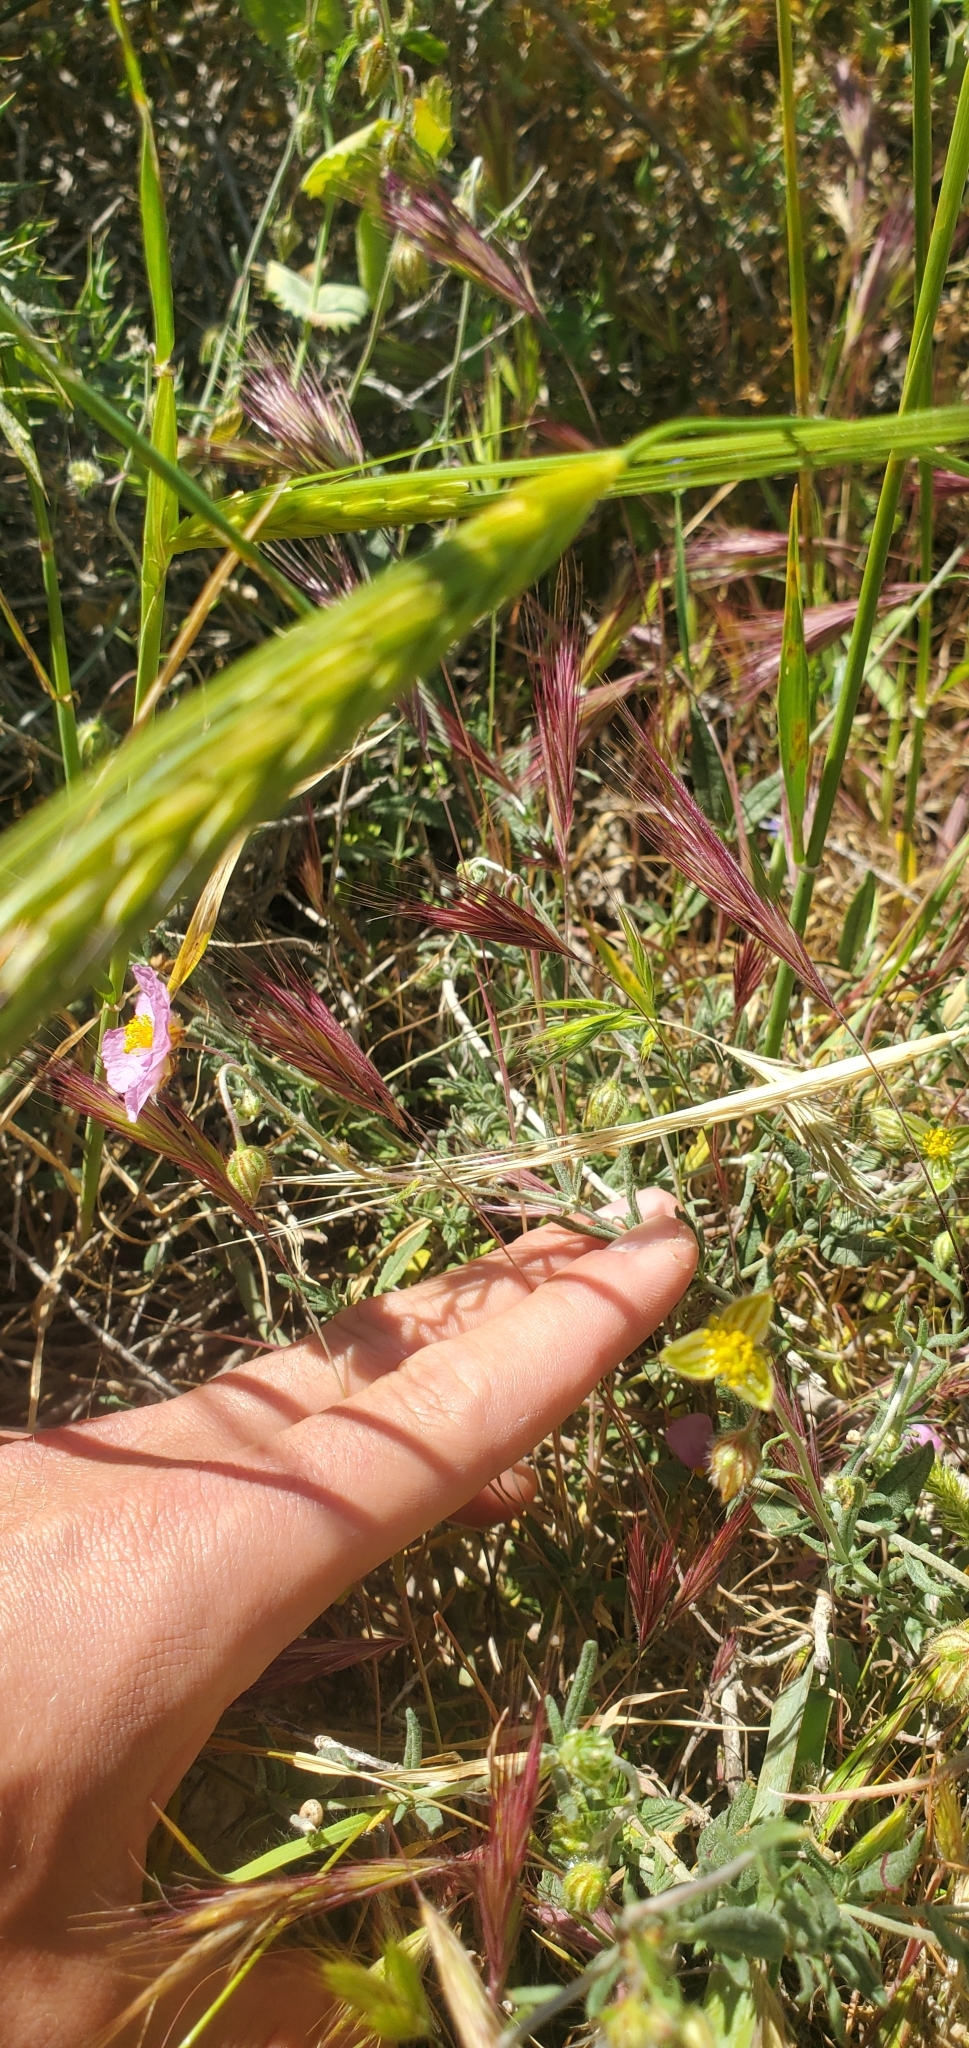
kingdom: Plantae
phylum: Tracheophyta
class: Magnoliopsida
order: Malvales
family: Cistaceae
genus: Helianthemum
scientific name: Helianthemum vesicarium
